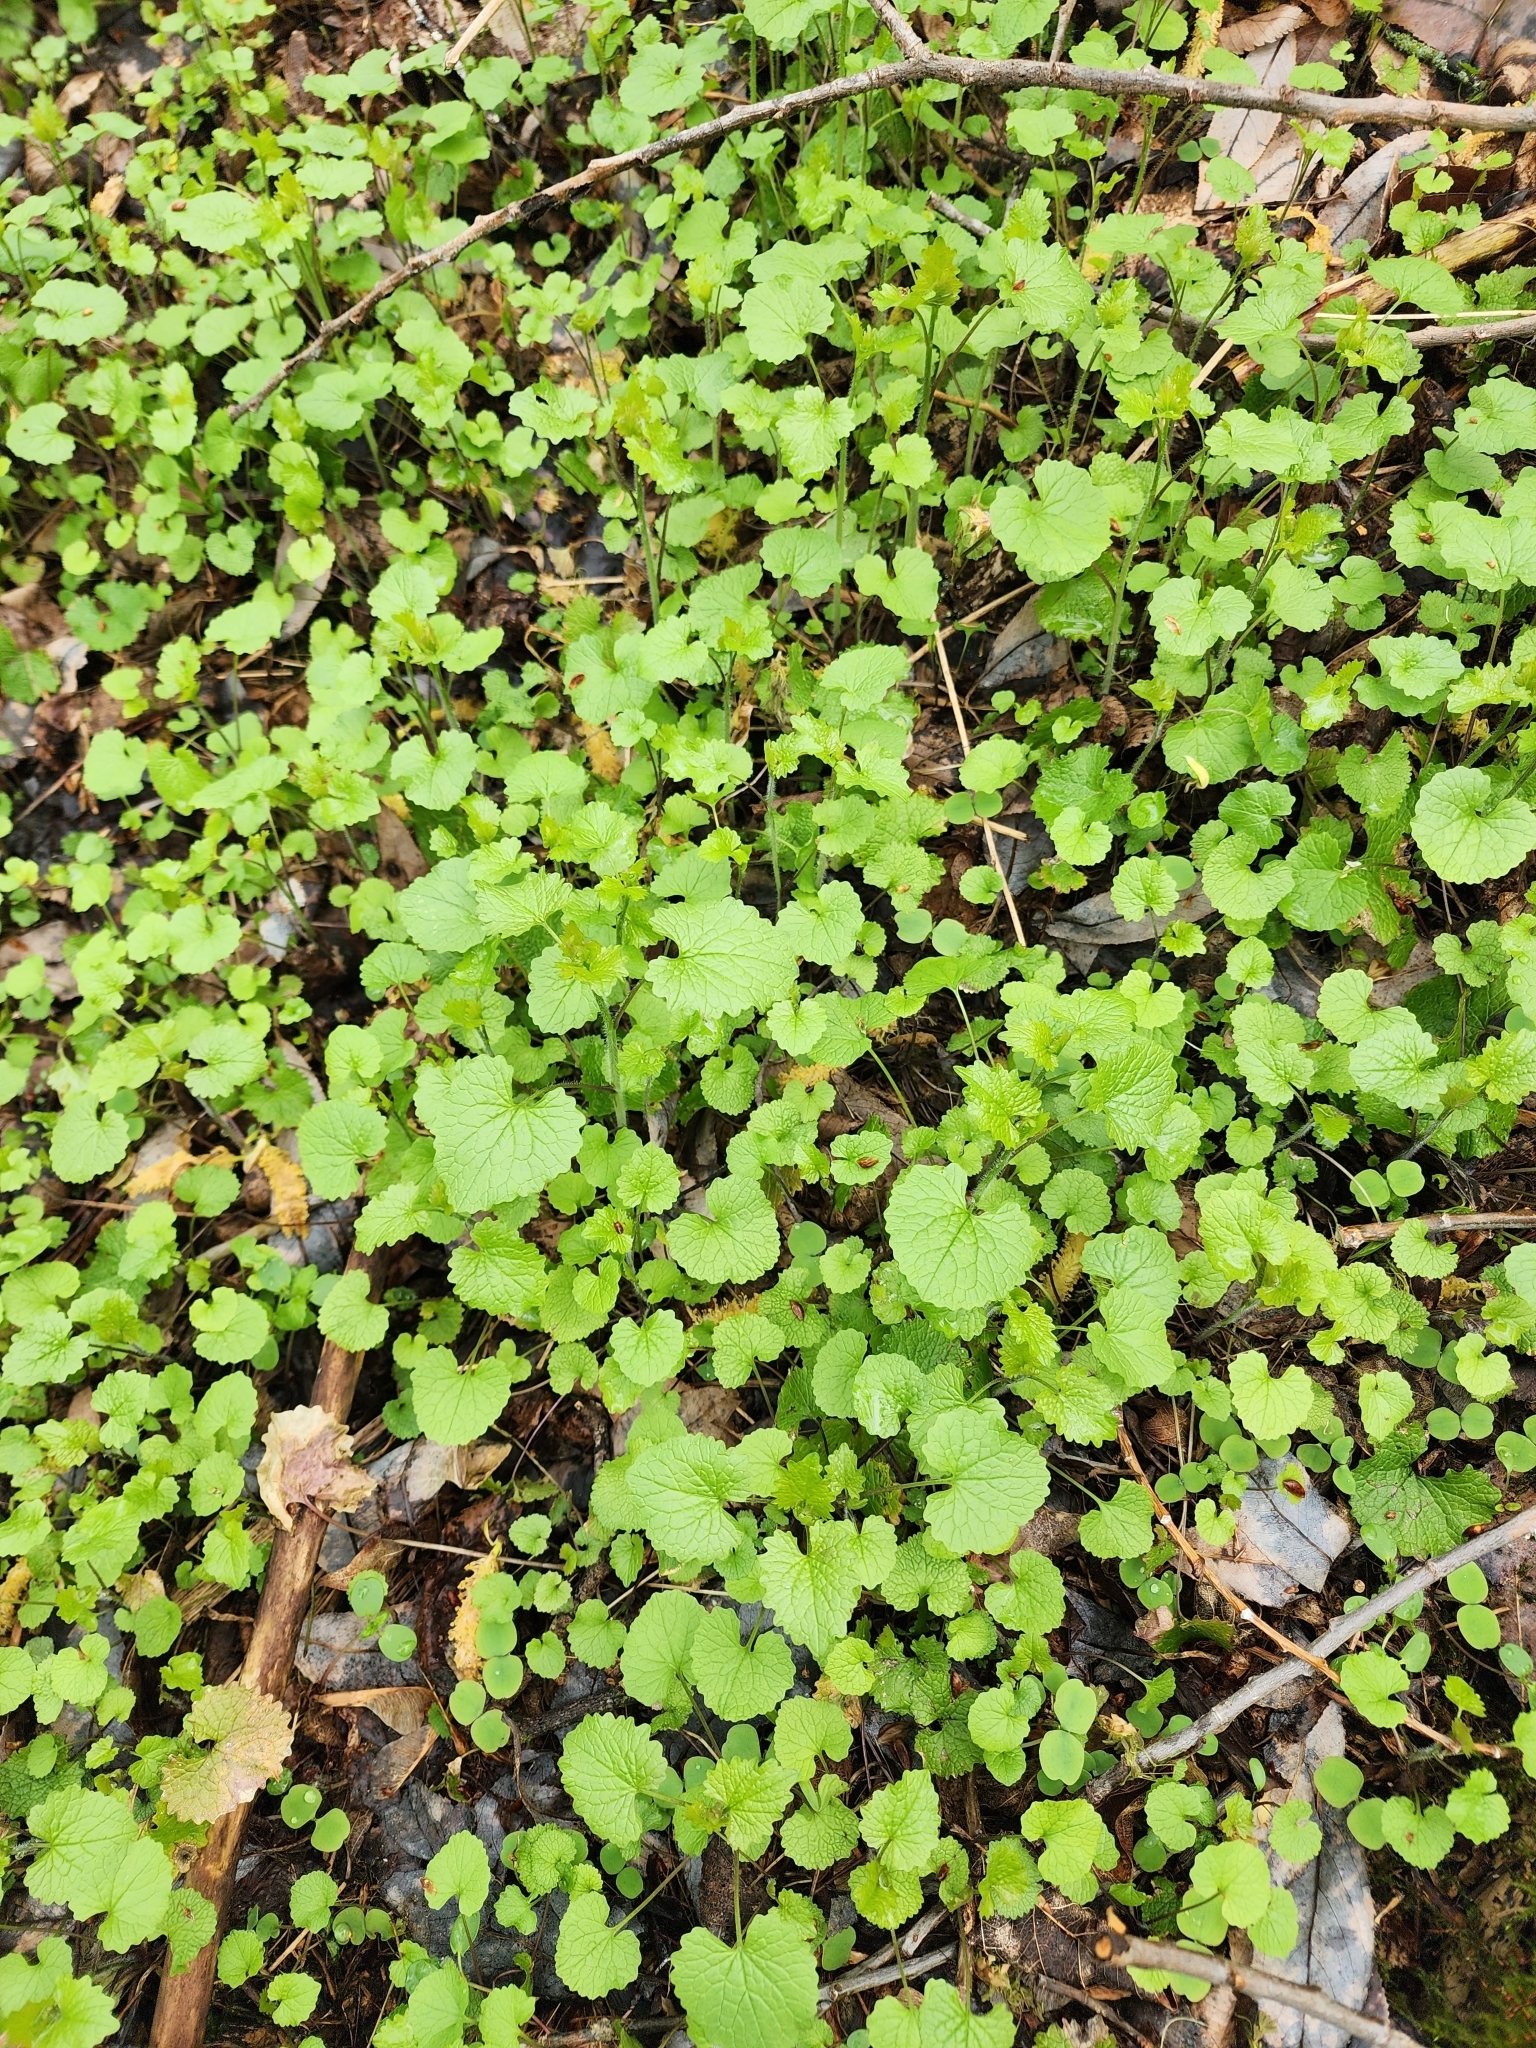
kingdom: Plantae
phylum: Tracheophyta
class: Magnoliopsida
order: Brassicales
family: Brassicaceae
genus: Alliaria
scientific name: Alliaria petiolata
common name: Garlic mustard
